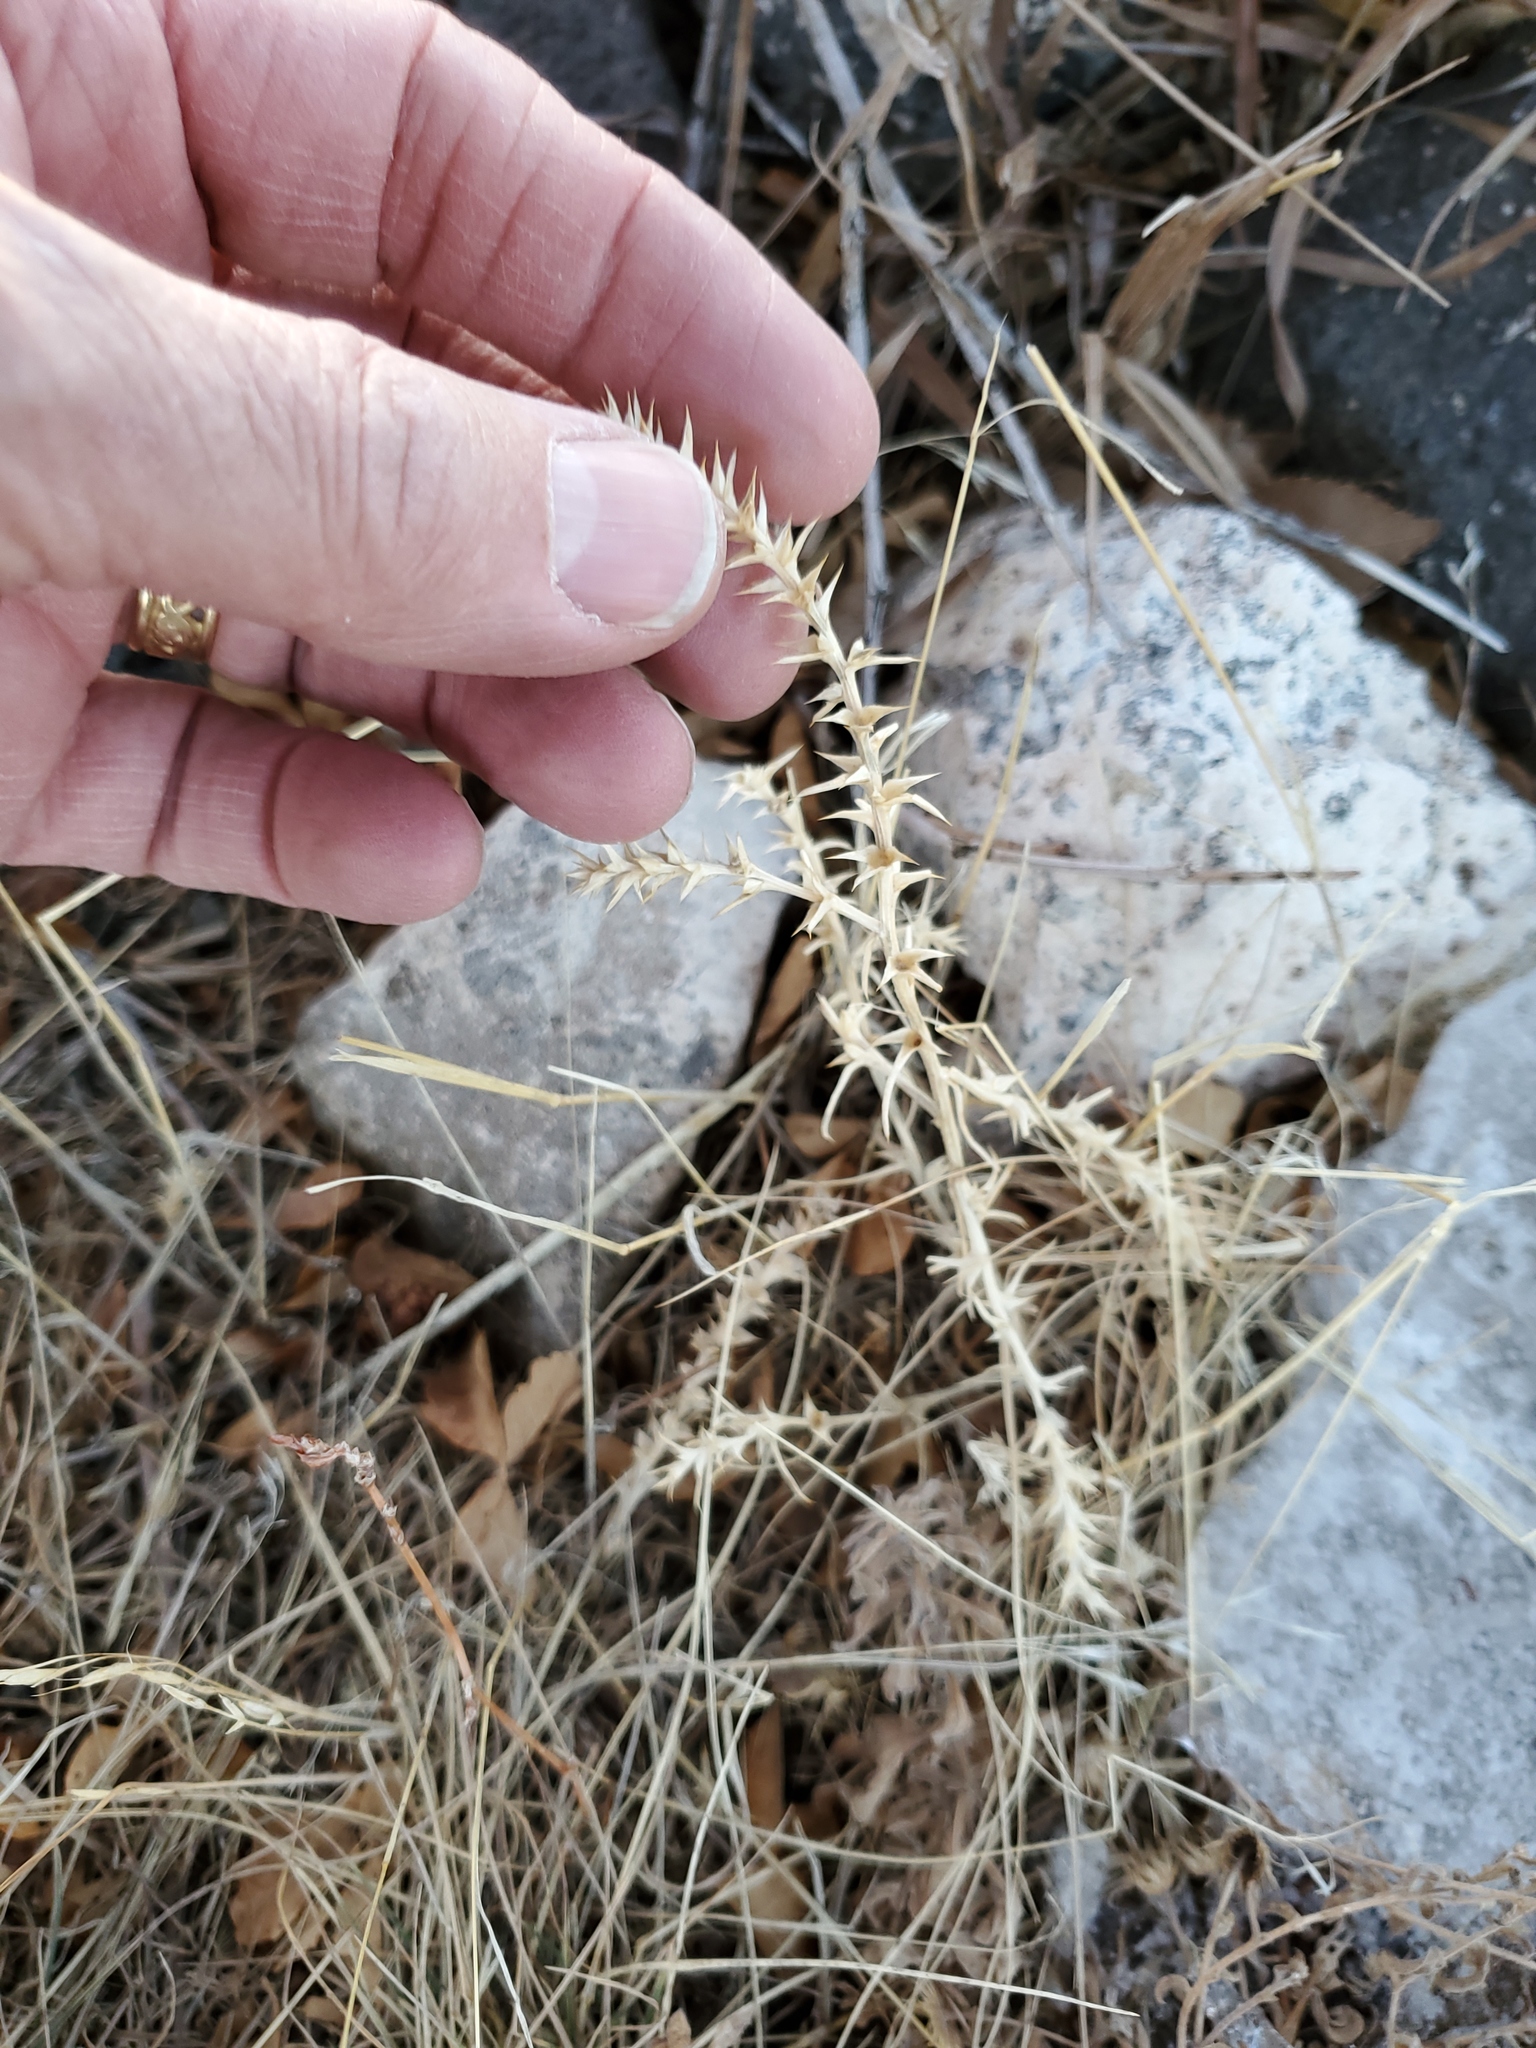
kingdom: Plantae
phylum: Tracheophyta
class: Magnoliopsida
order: Caryophyllales
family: Amaranthaceae
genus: Salsola
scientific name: Salsola tragus
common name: Prickly russian thistle
